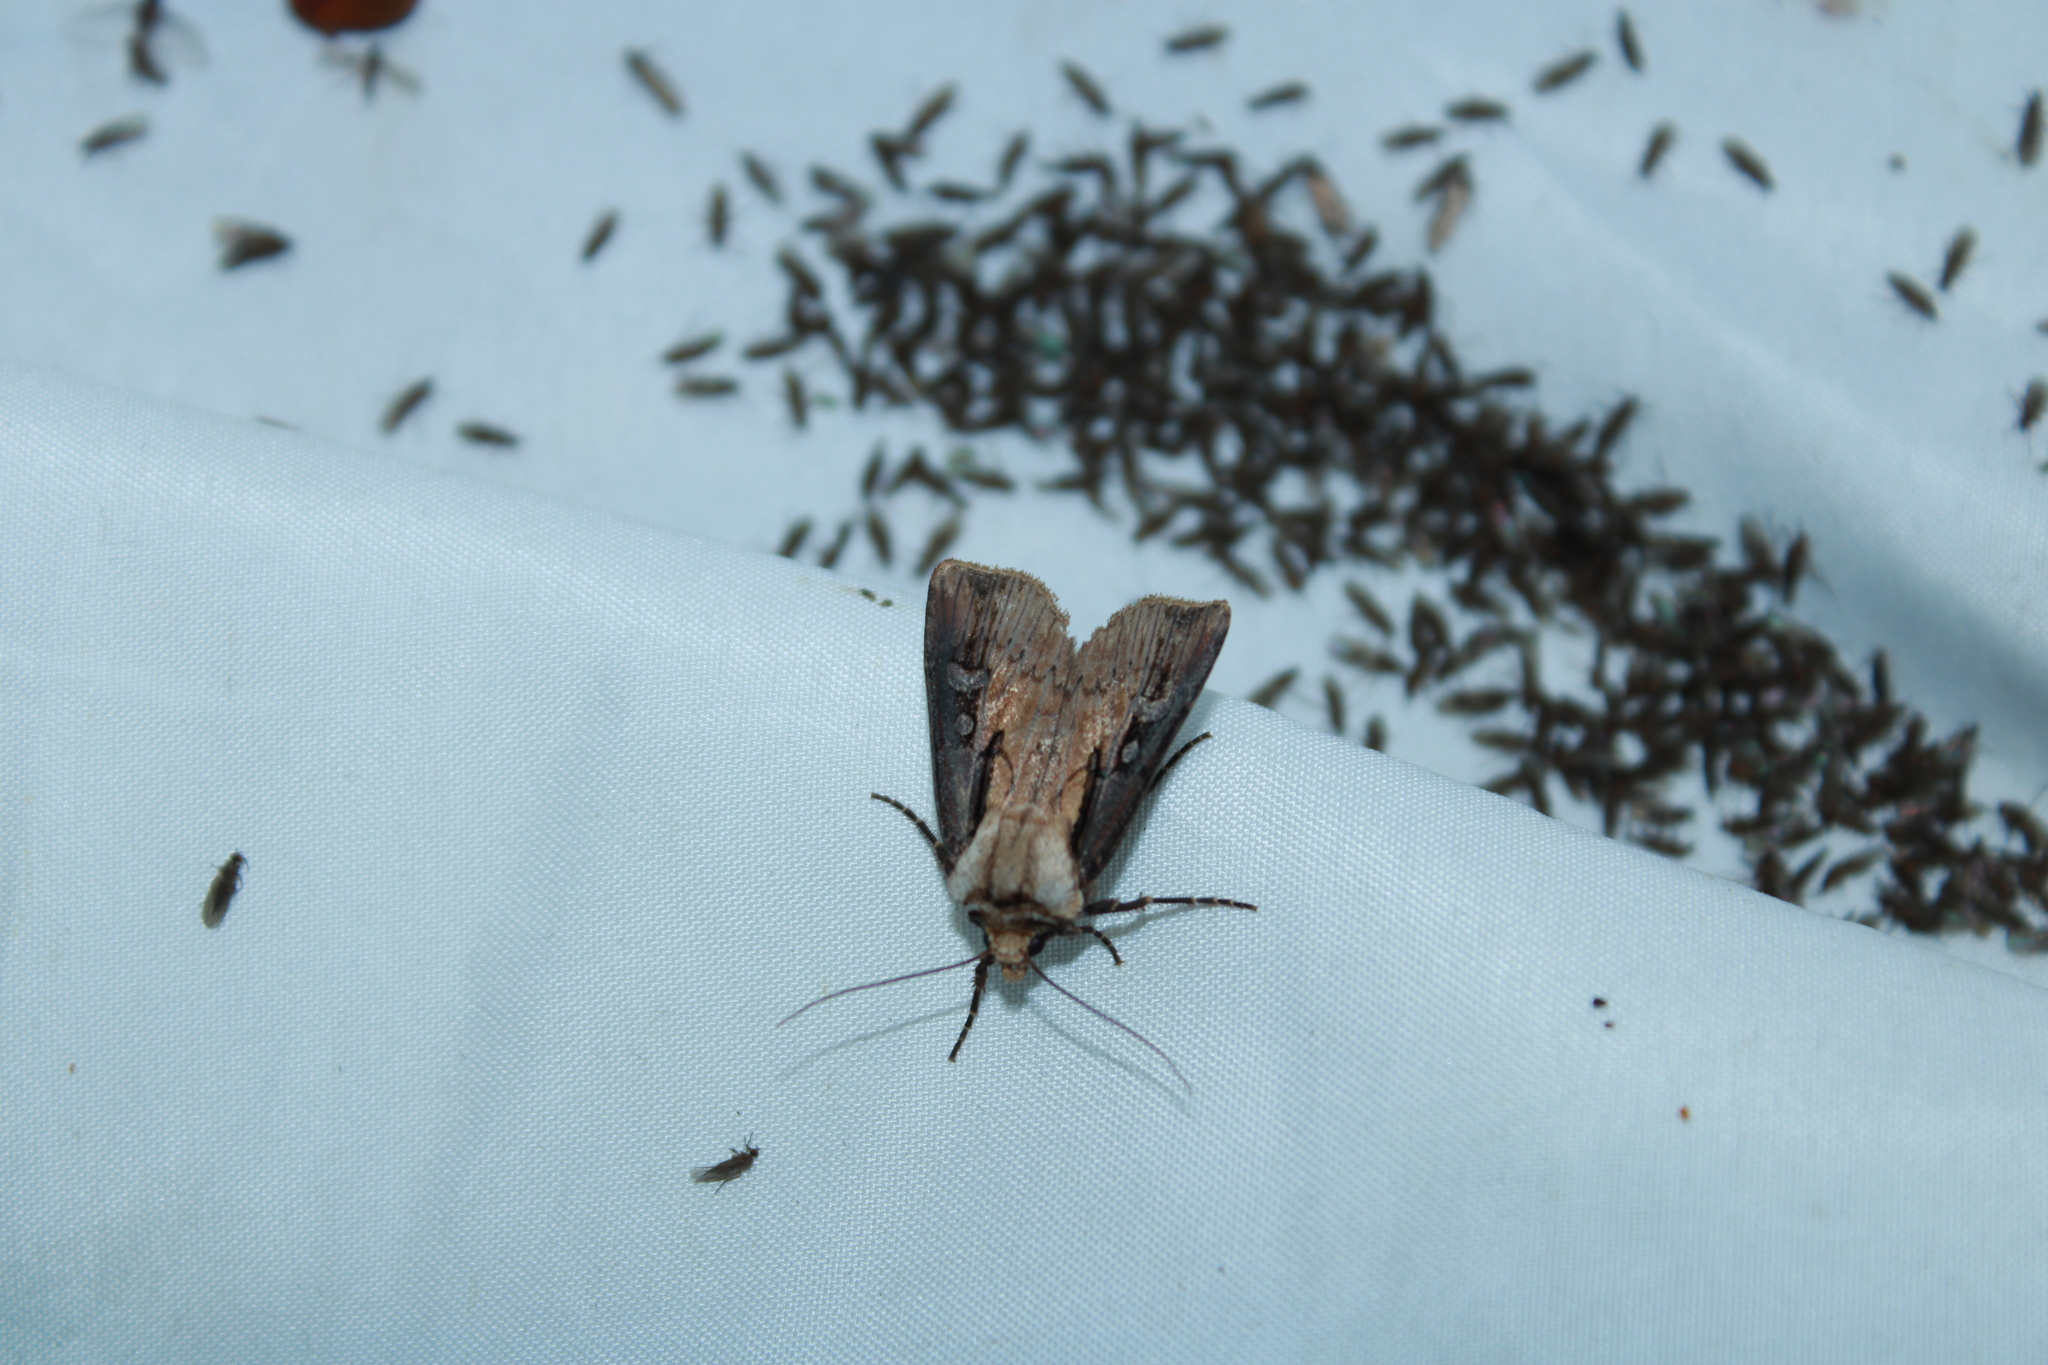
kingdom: Animalia
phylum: Arthropoda
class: Insecta
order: Lepidoptera
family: Noctuidae
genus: Agrotis
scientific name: Agrotis volubilis
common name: Voluble dart
